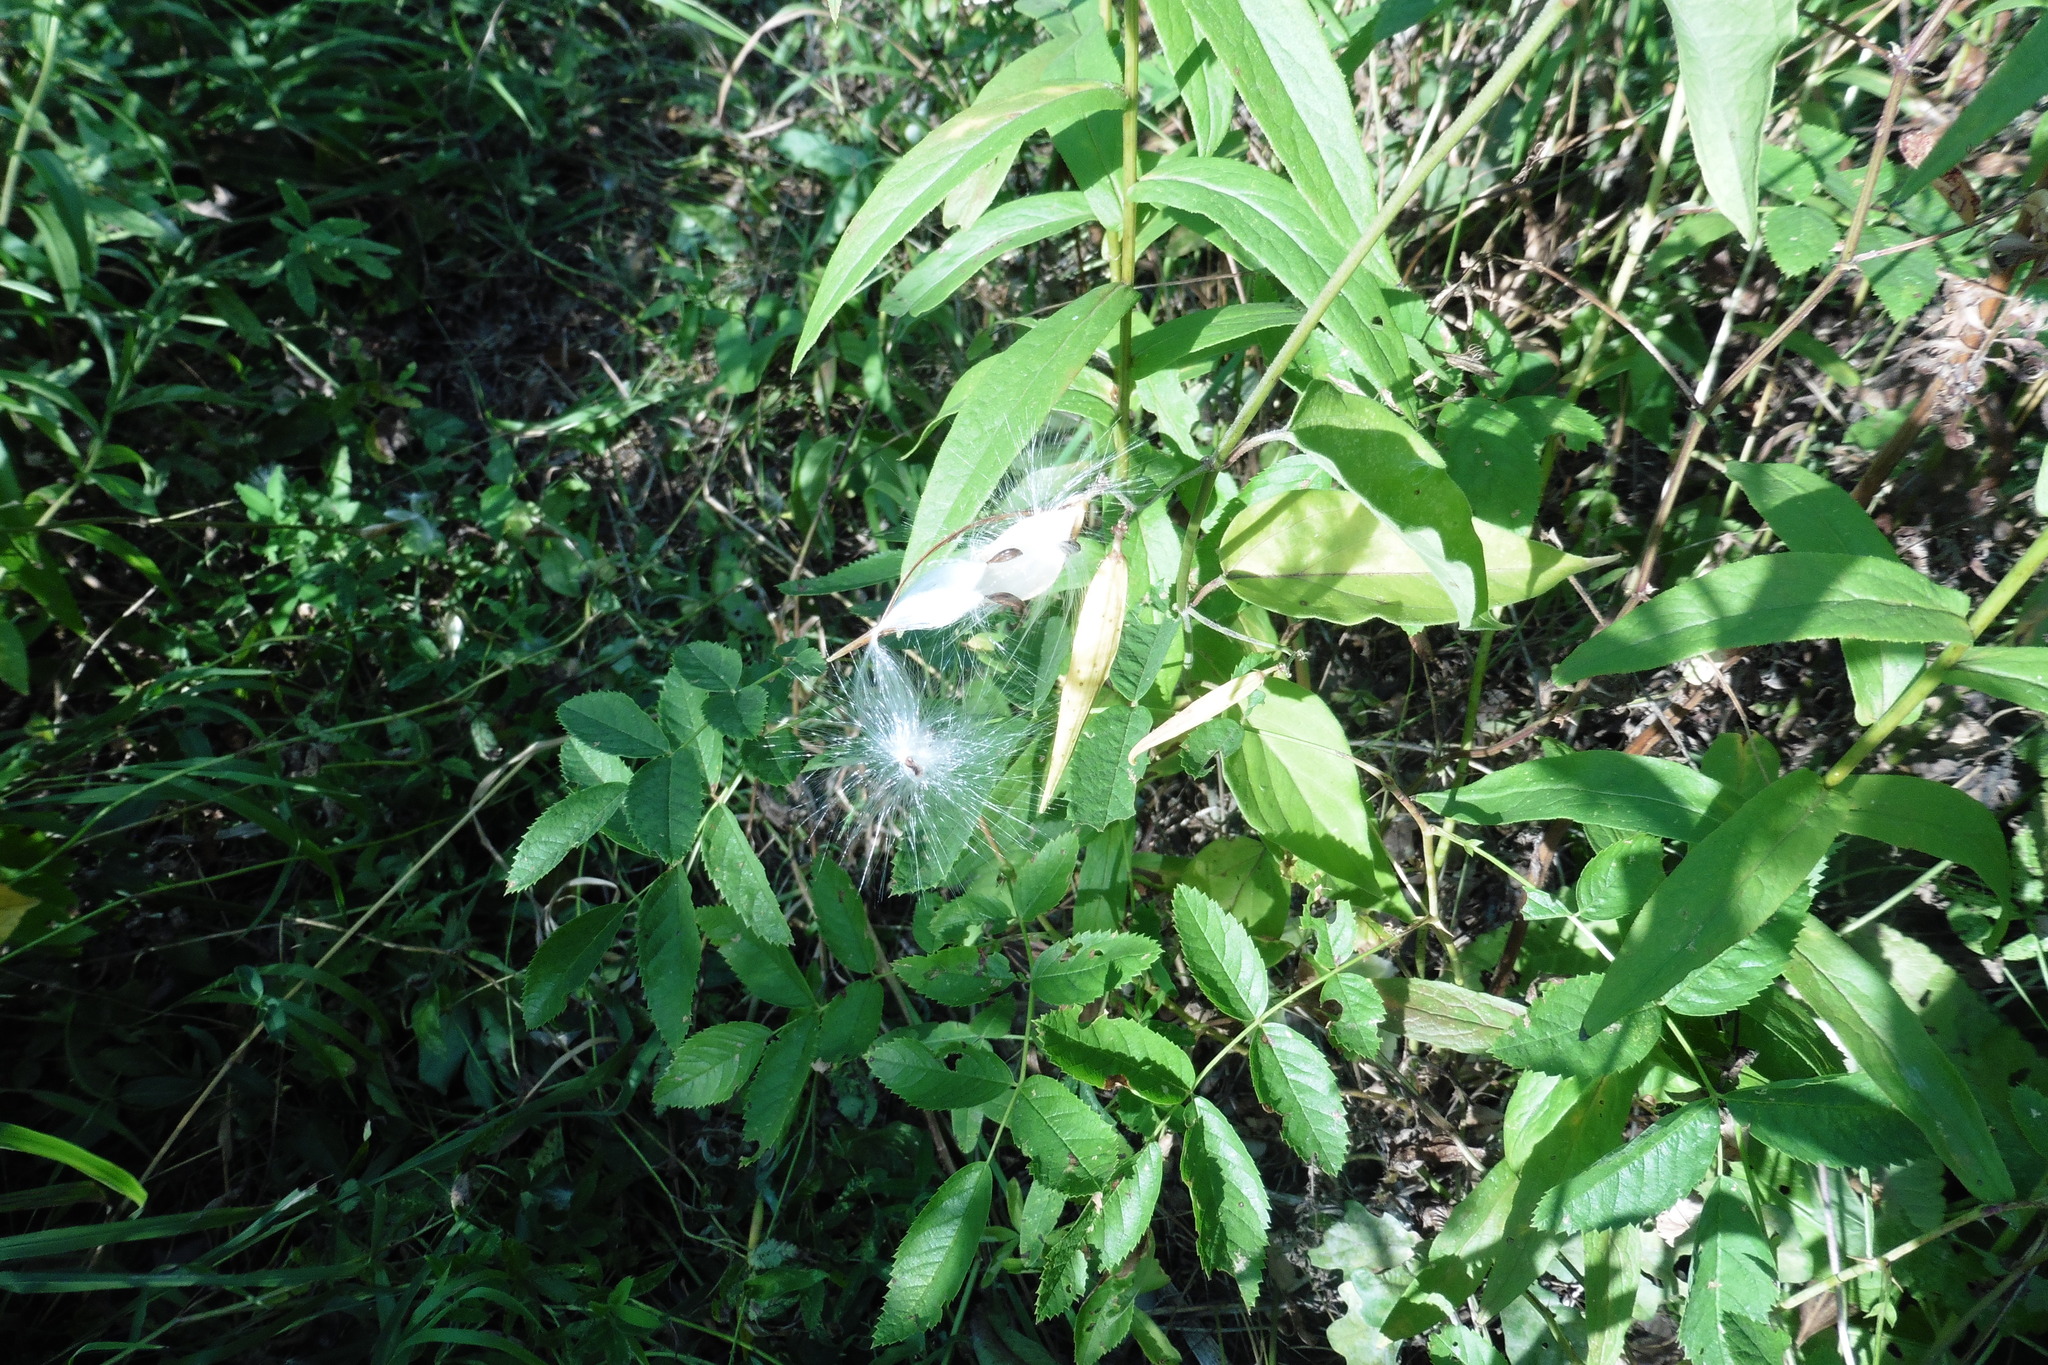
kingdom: Plantae
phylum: Tracheophyta
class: Magnoliopsida
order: Gentianales
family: Apocynaceae
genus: Vincetoxicum
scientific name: Vincetoxicum hirundinaria
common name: White swallowwort
